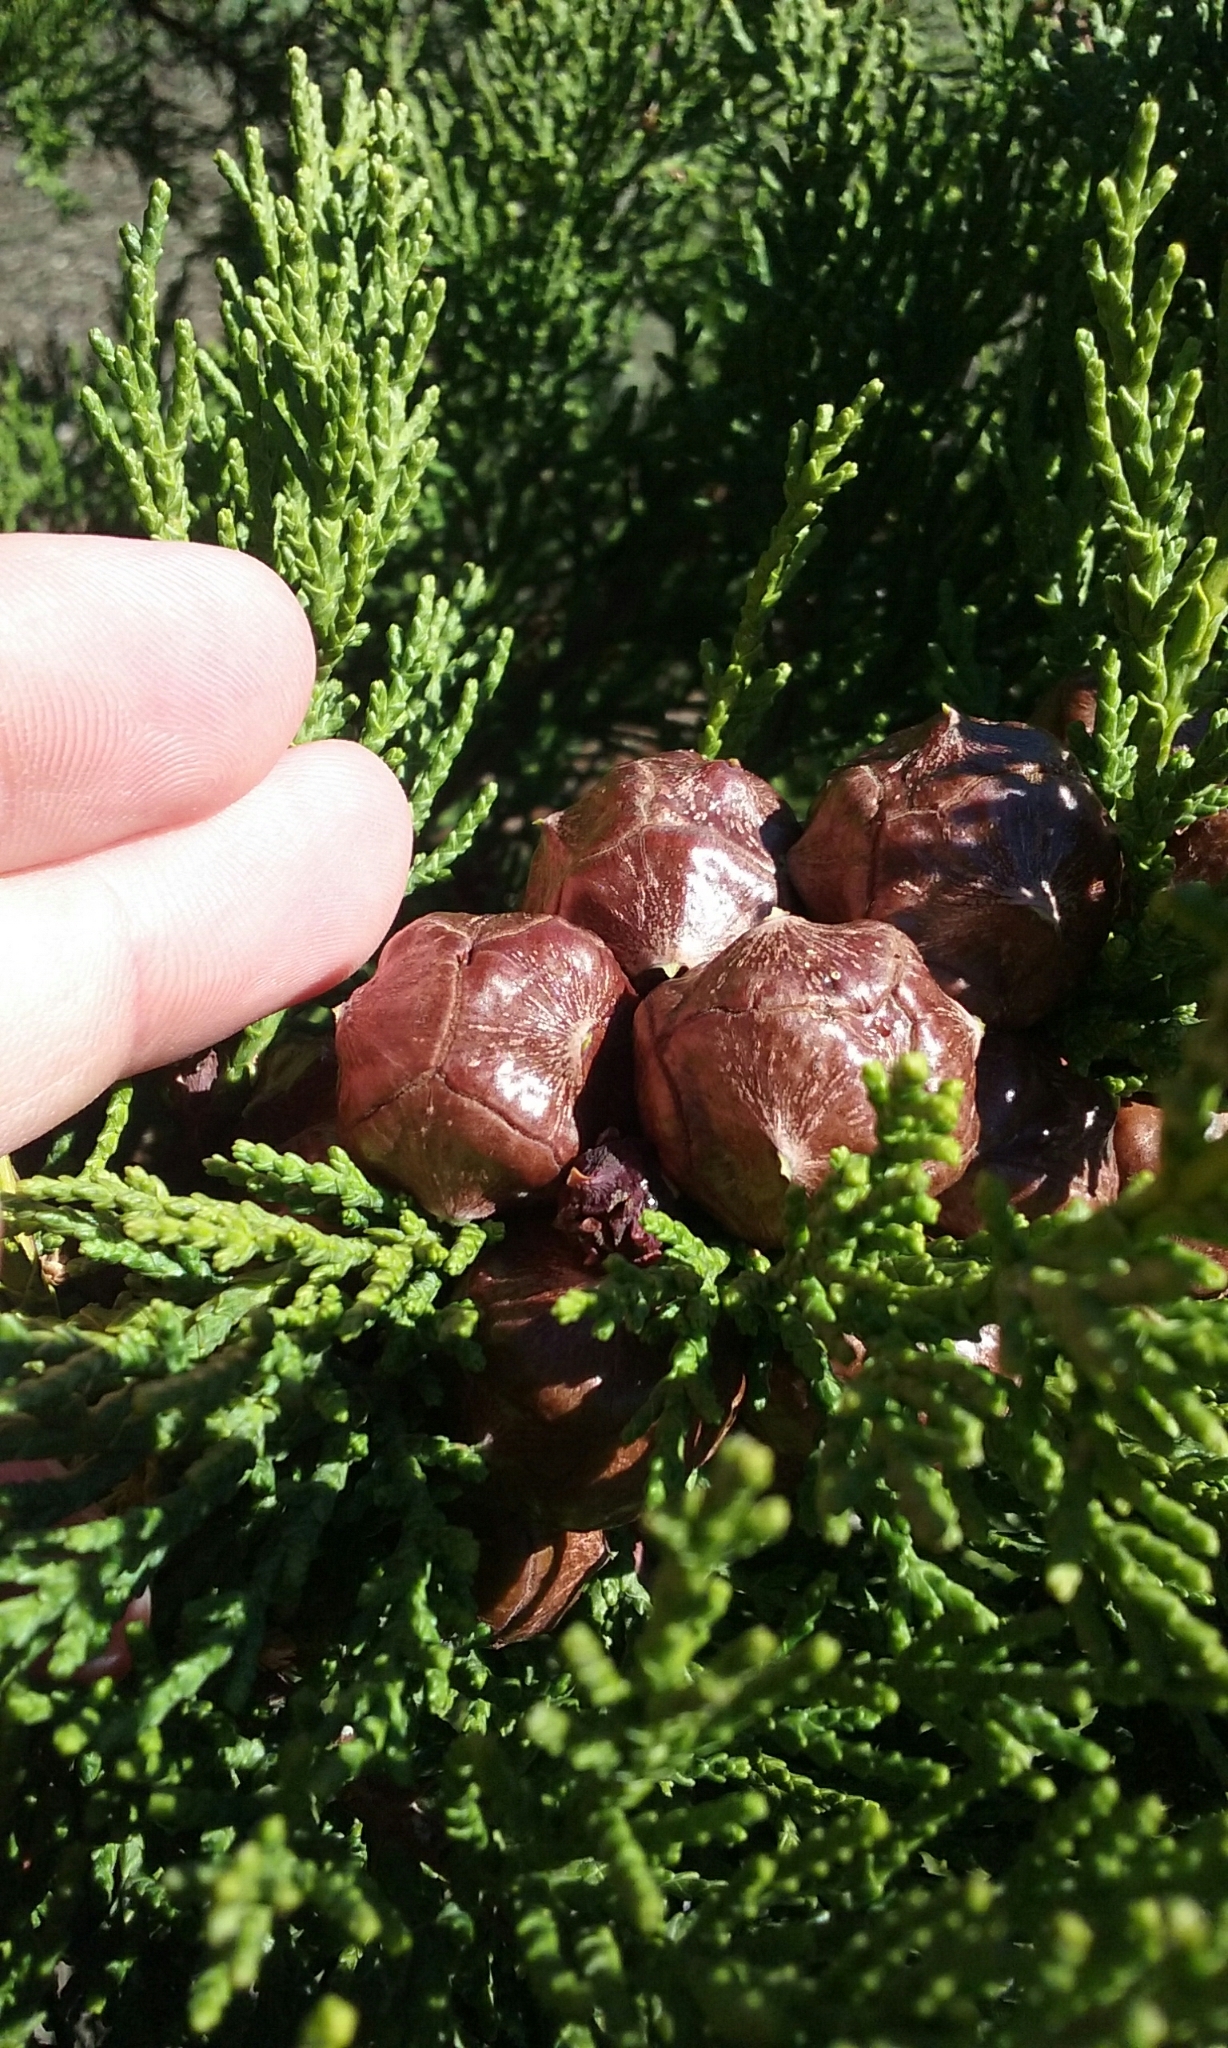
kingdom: Plantae
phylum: Tracheophyta
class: Pinopsida
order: Pinales
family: Cupressaceae
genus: Cupressus
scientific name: Cupressus macrocarpa
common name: Monterey cypress
